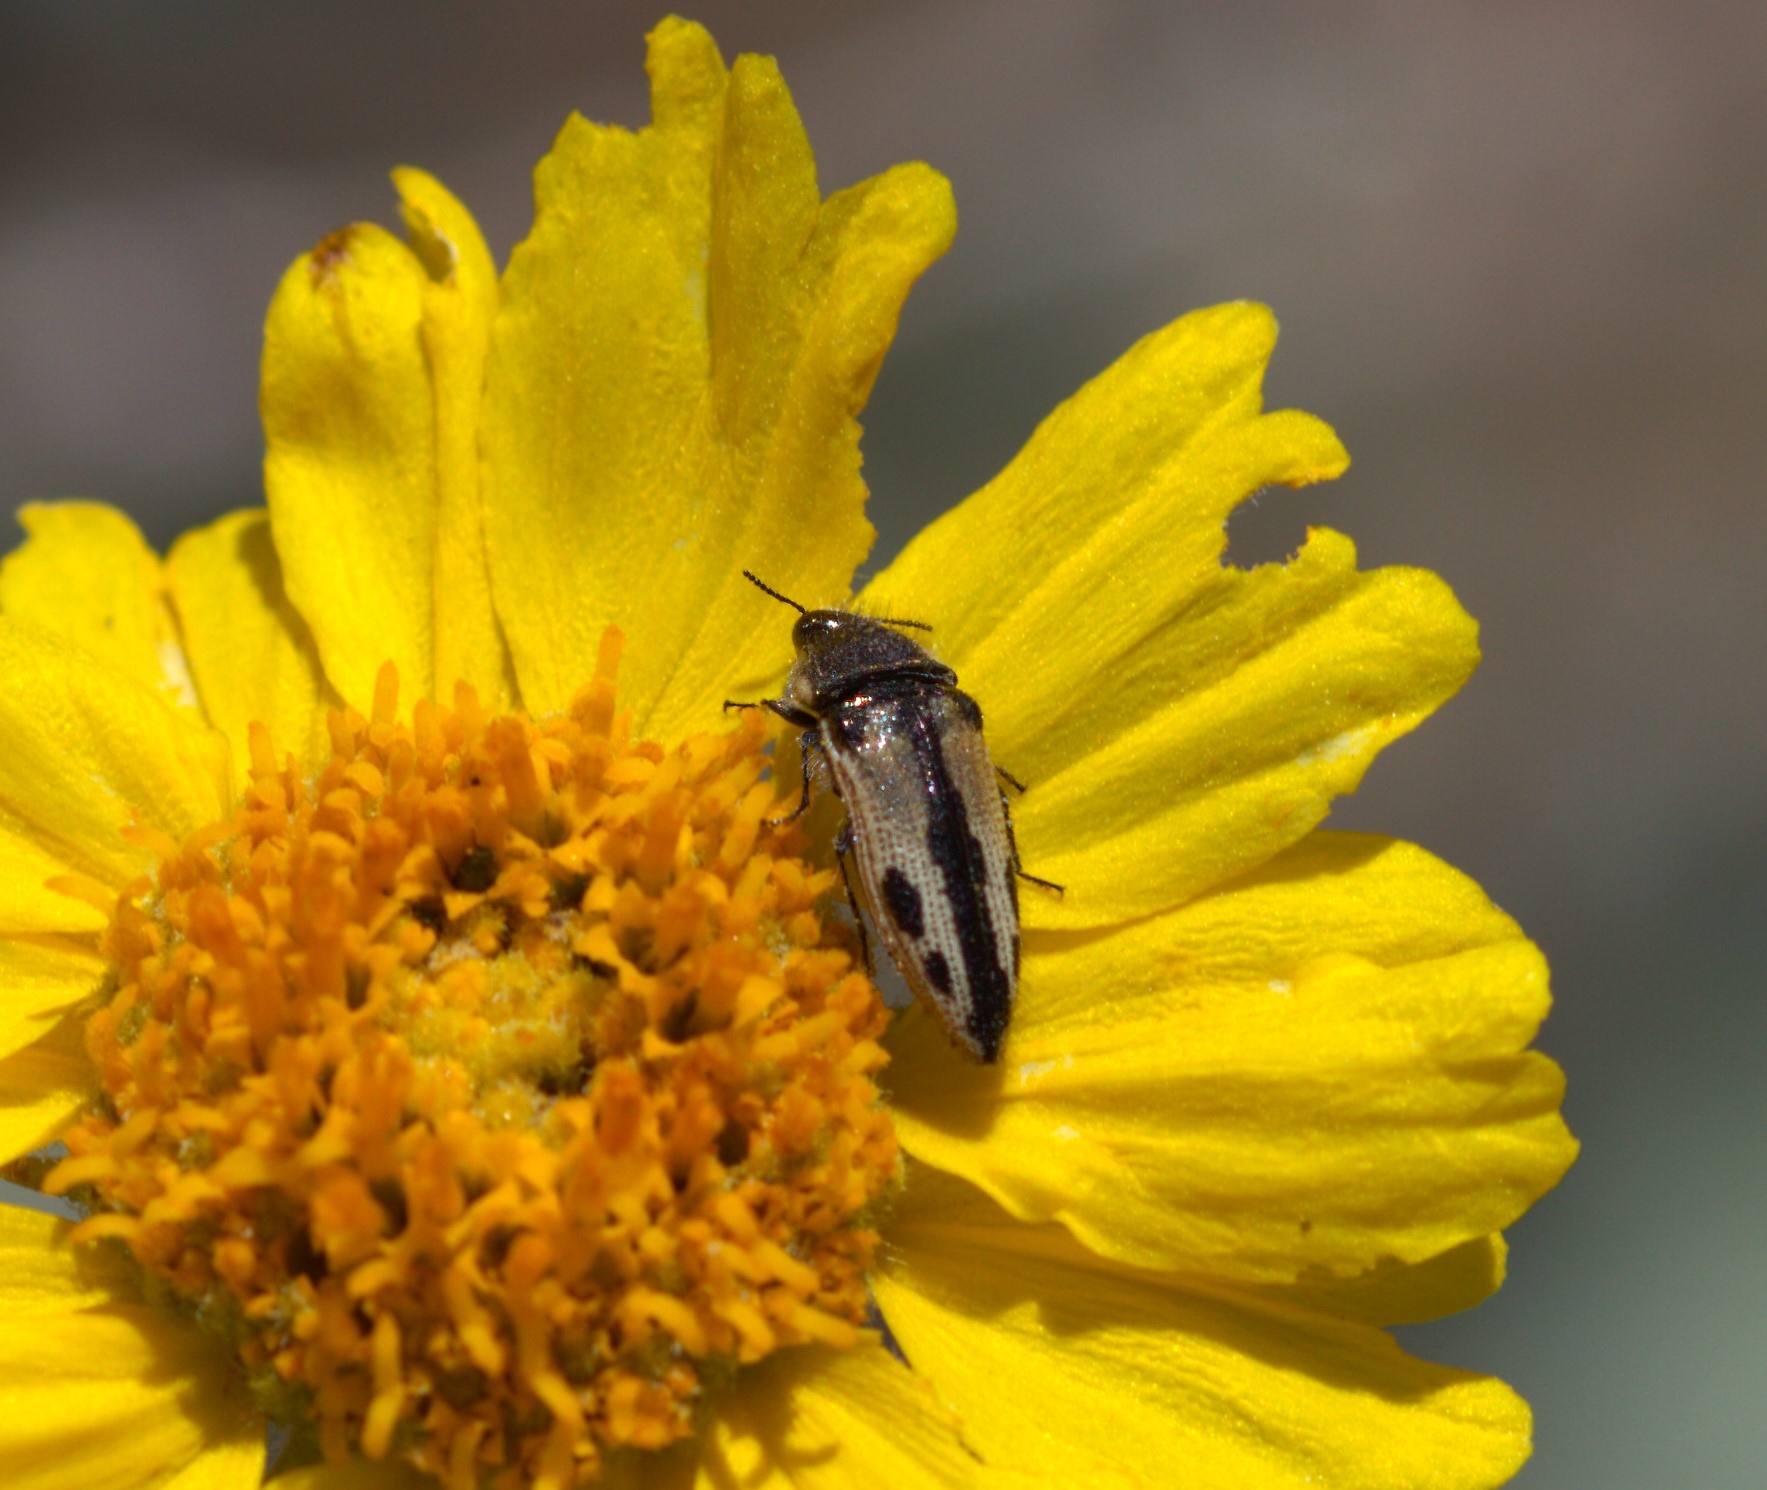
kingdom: Animalia
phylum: Arthropoda
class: Insecta
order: Coleoptera
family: Buprestidae
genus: Acmaeodera
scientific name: Acmaeodera latiflava
